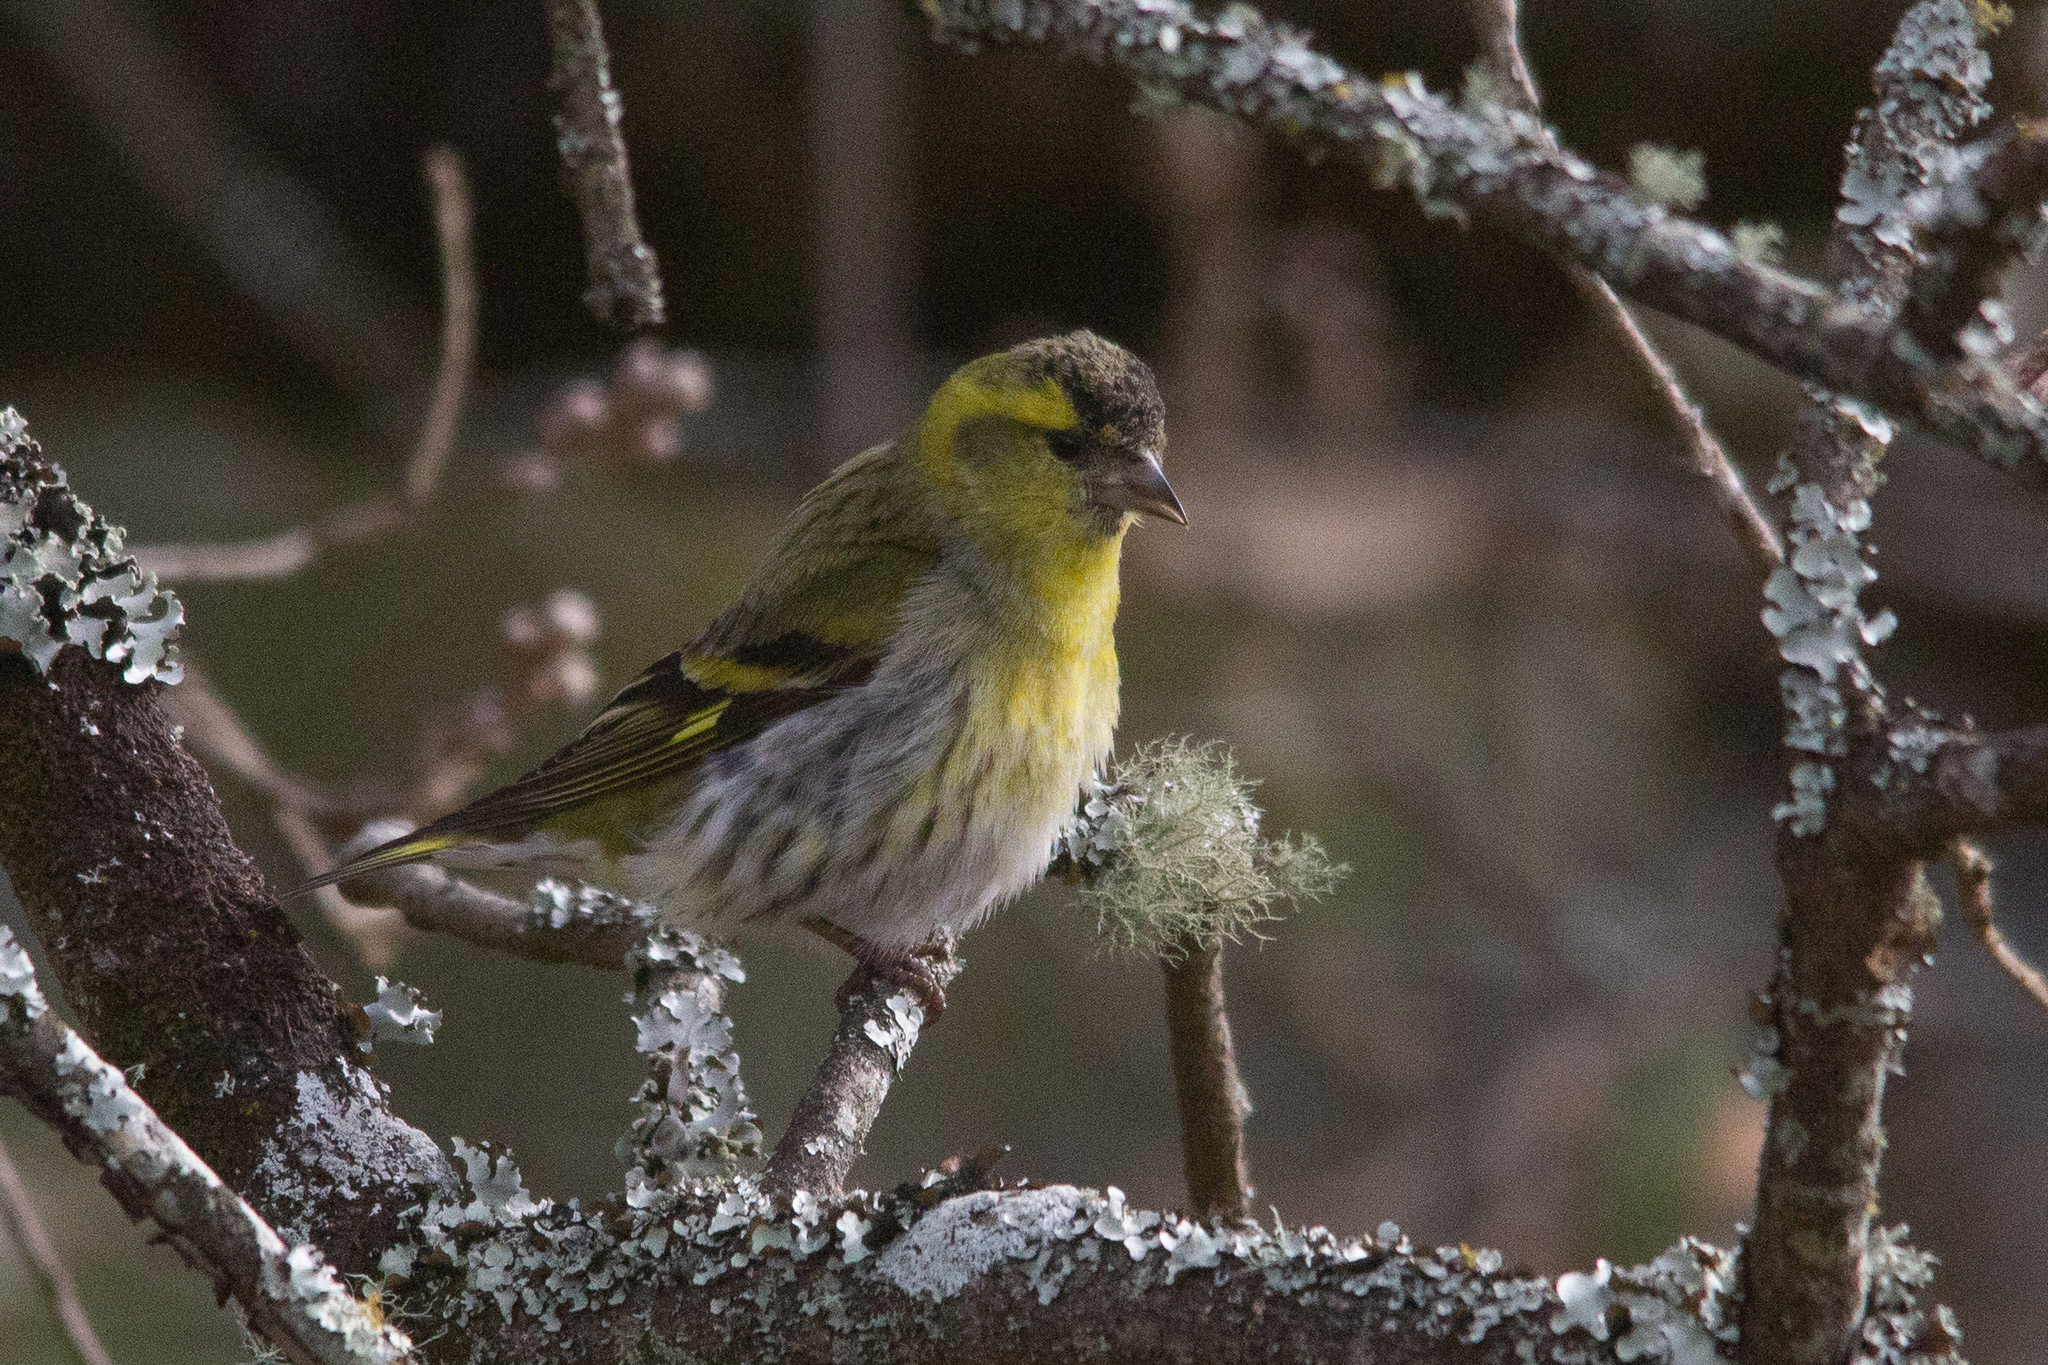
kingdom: Animalia
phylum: Chordata
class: Aves
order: Passeriformes
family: Fringillidae
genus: Spinus
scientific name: Spinus spinus
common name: Eurasian siskin
